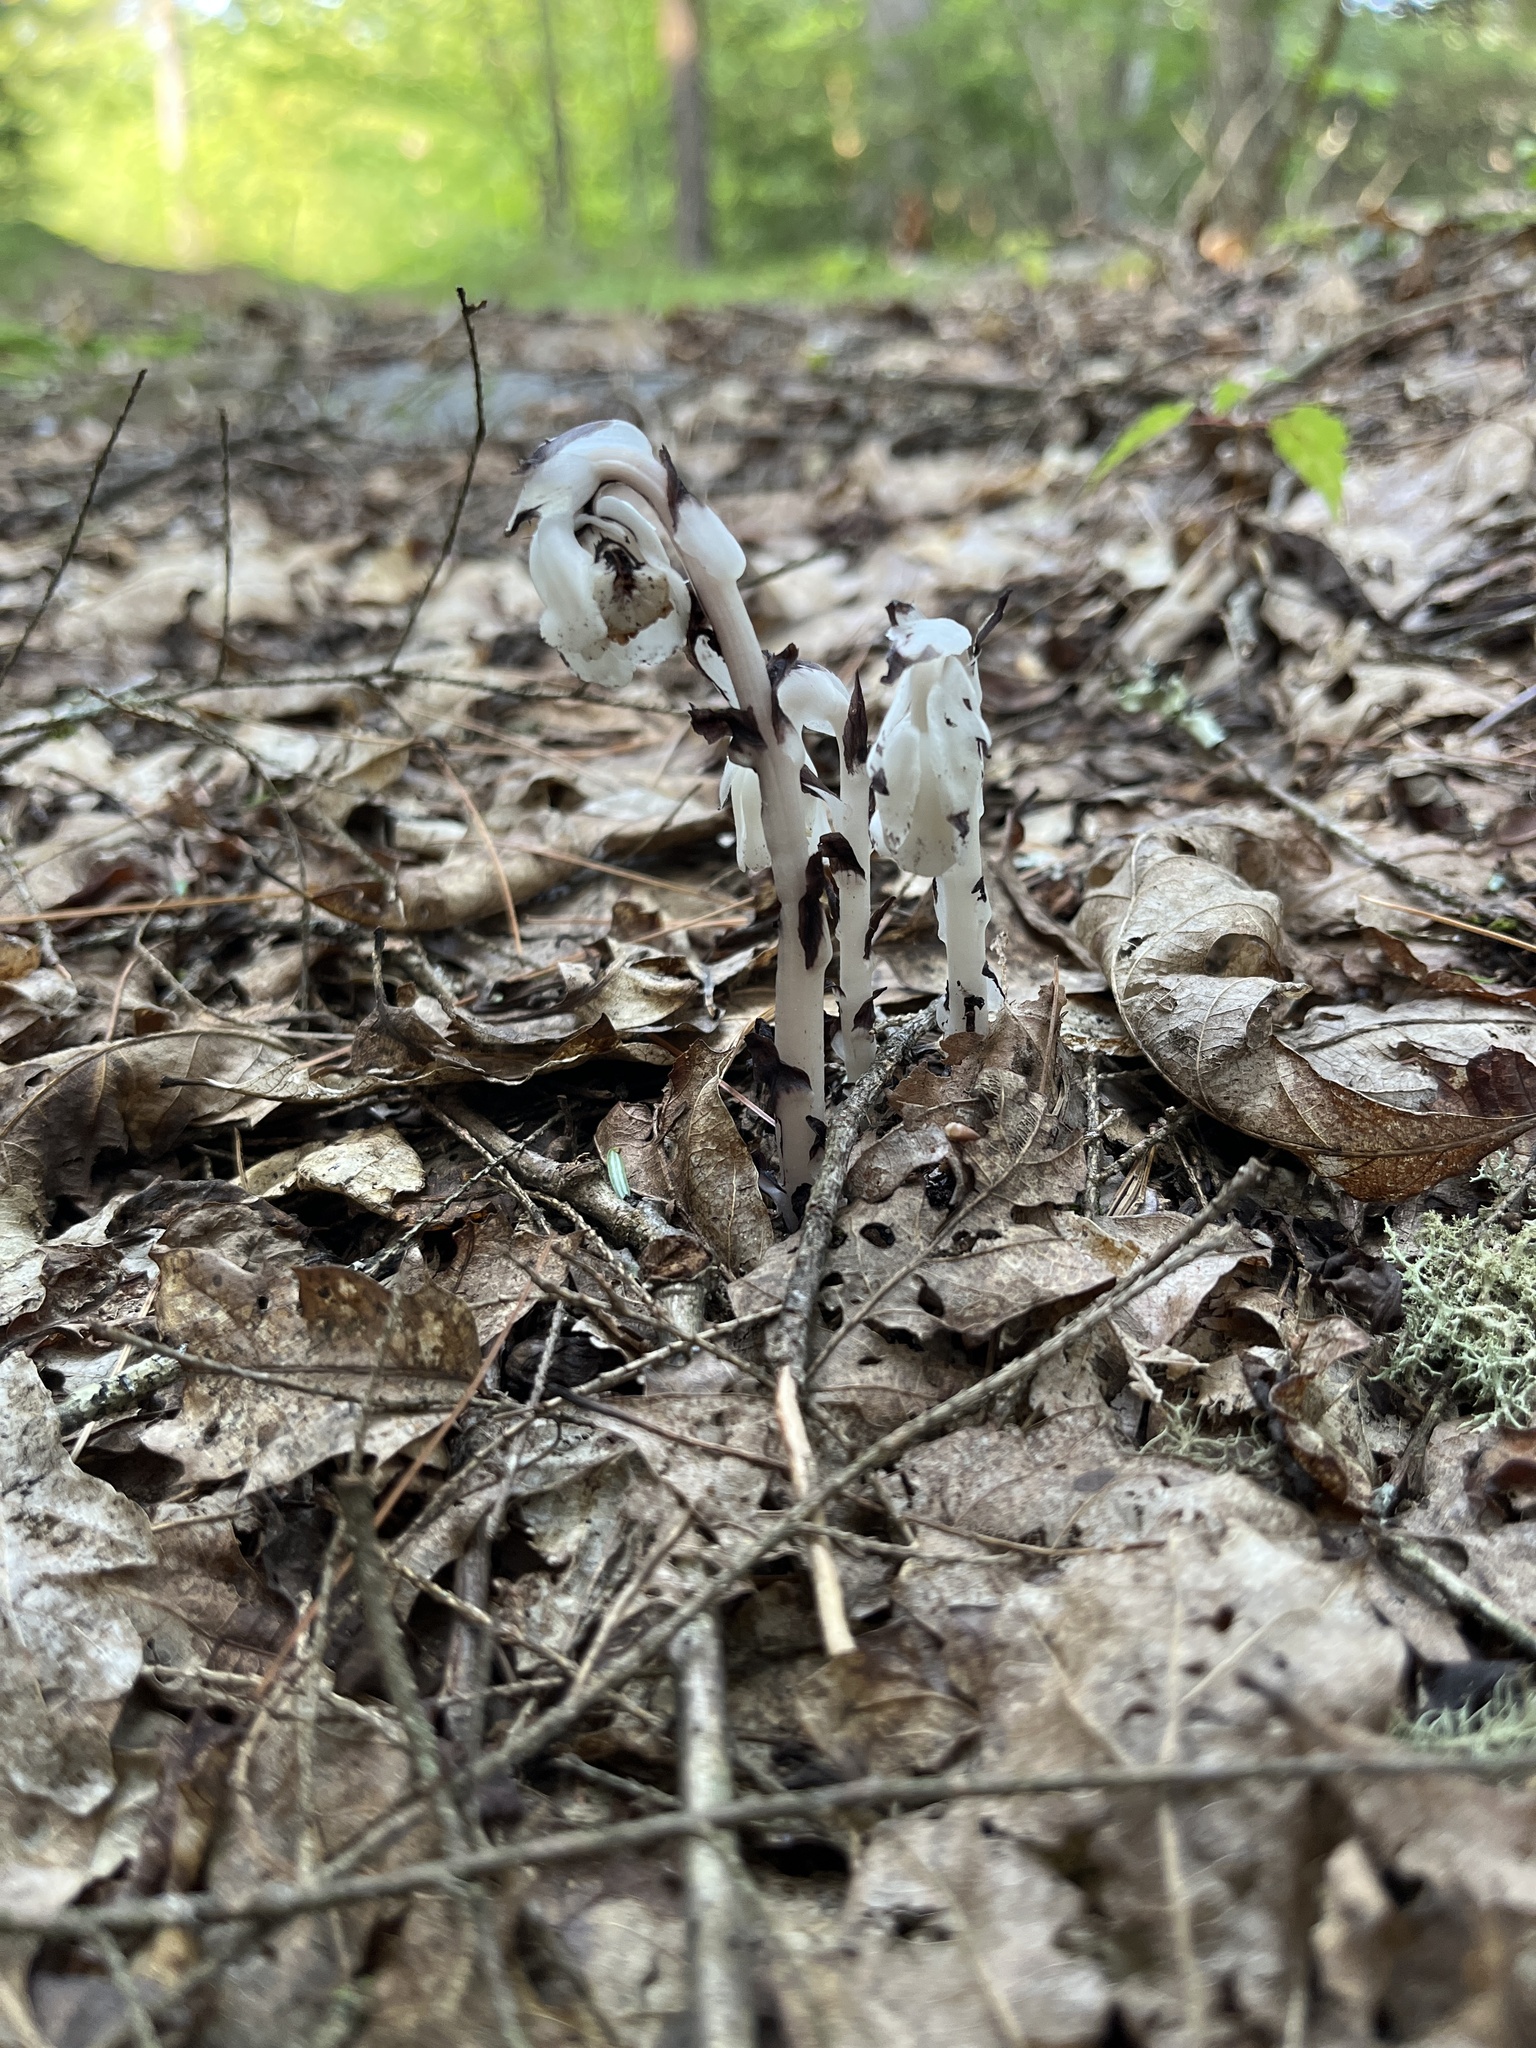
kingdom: Plantae
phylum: Tracheophyta
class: Magnoliopsida
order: Ericales
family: Ericaceae
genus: Monotropa
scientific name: Monotropa uniflora
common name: Convulsion root
